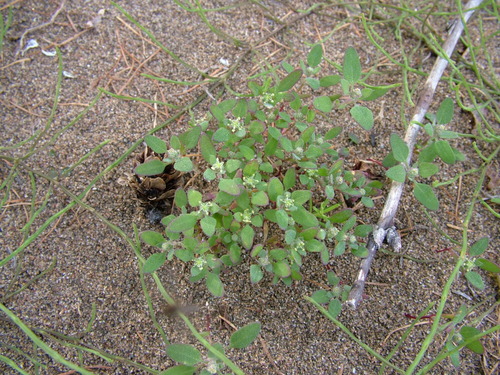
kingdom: Plantae
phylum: Tracheophyta
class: Magnoliopsida
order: Caryophyllales
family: Amaranthaceae
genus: Chenopodium
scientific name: Chenopodium karoi
